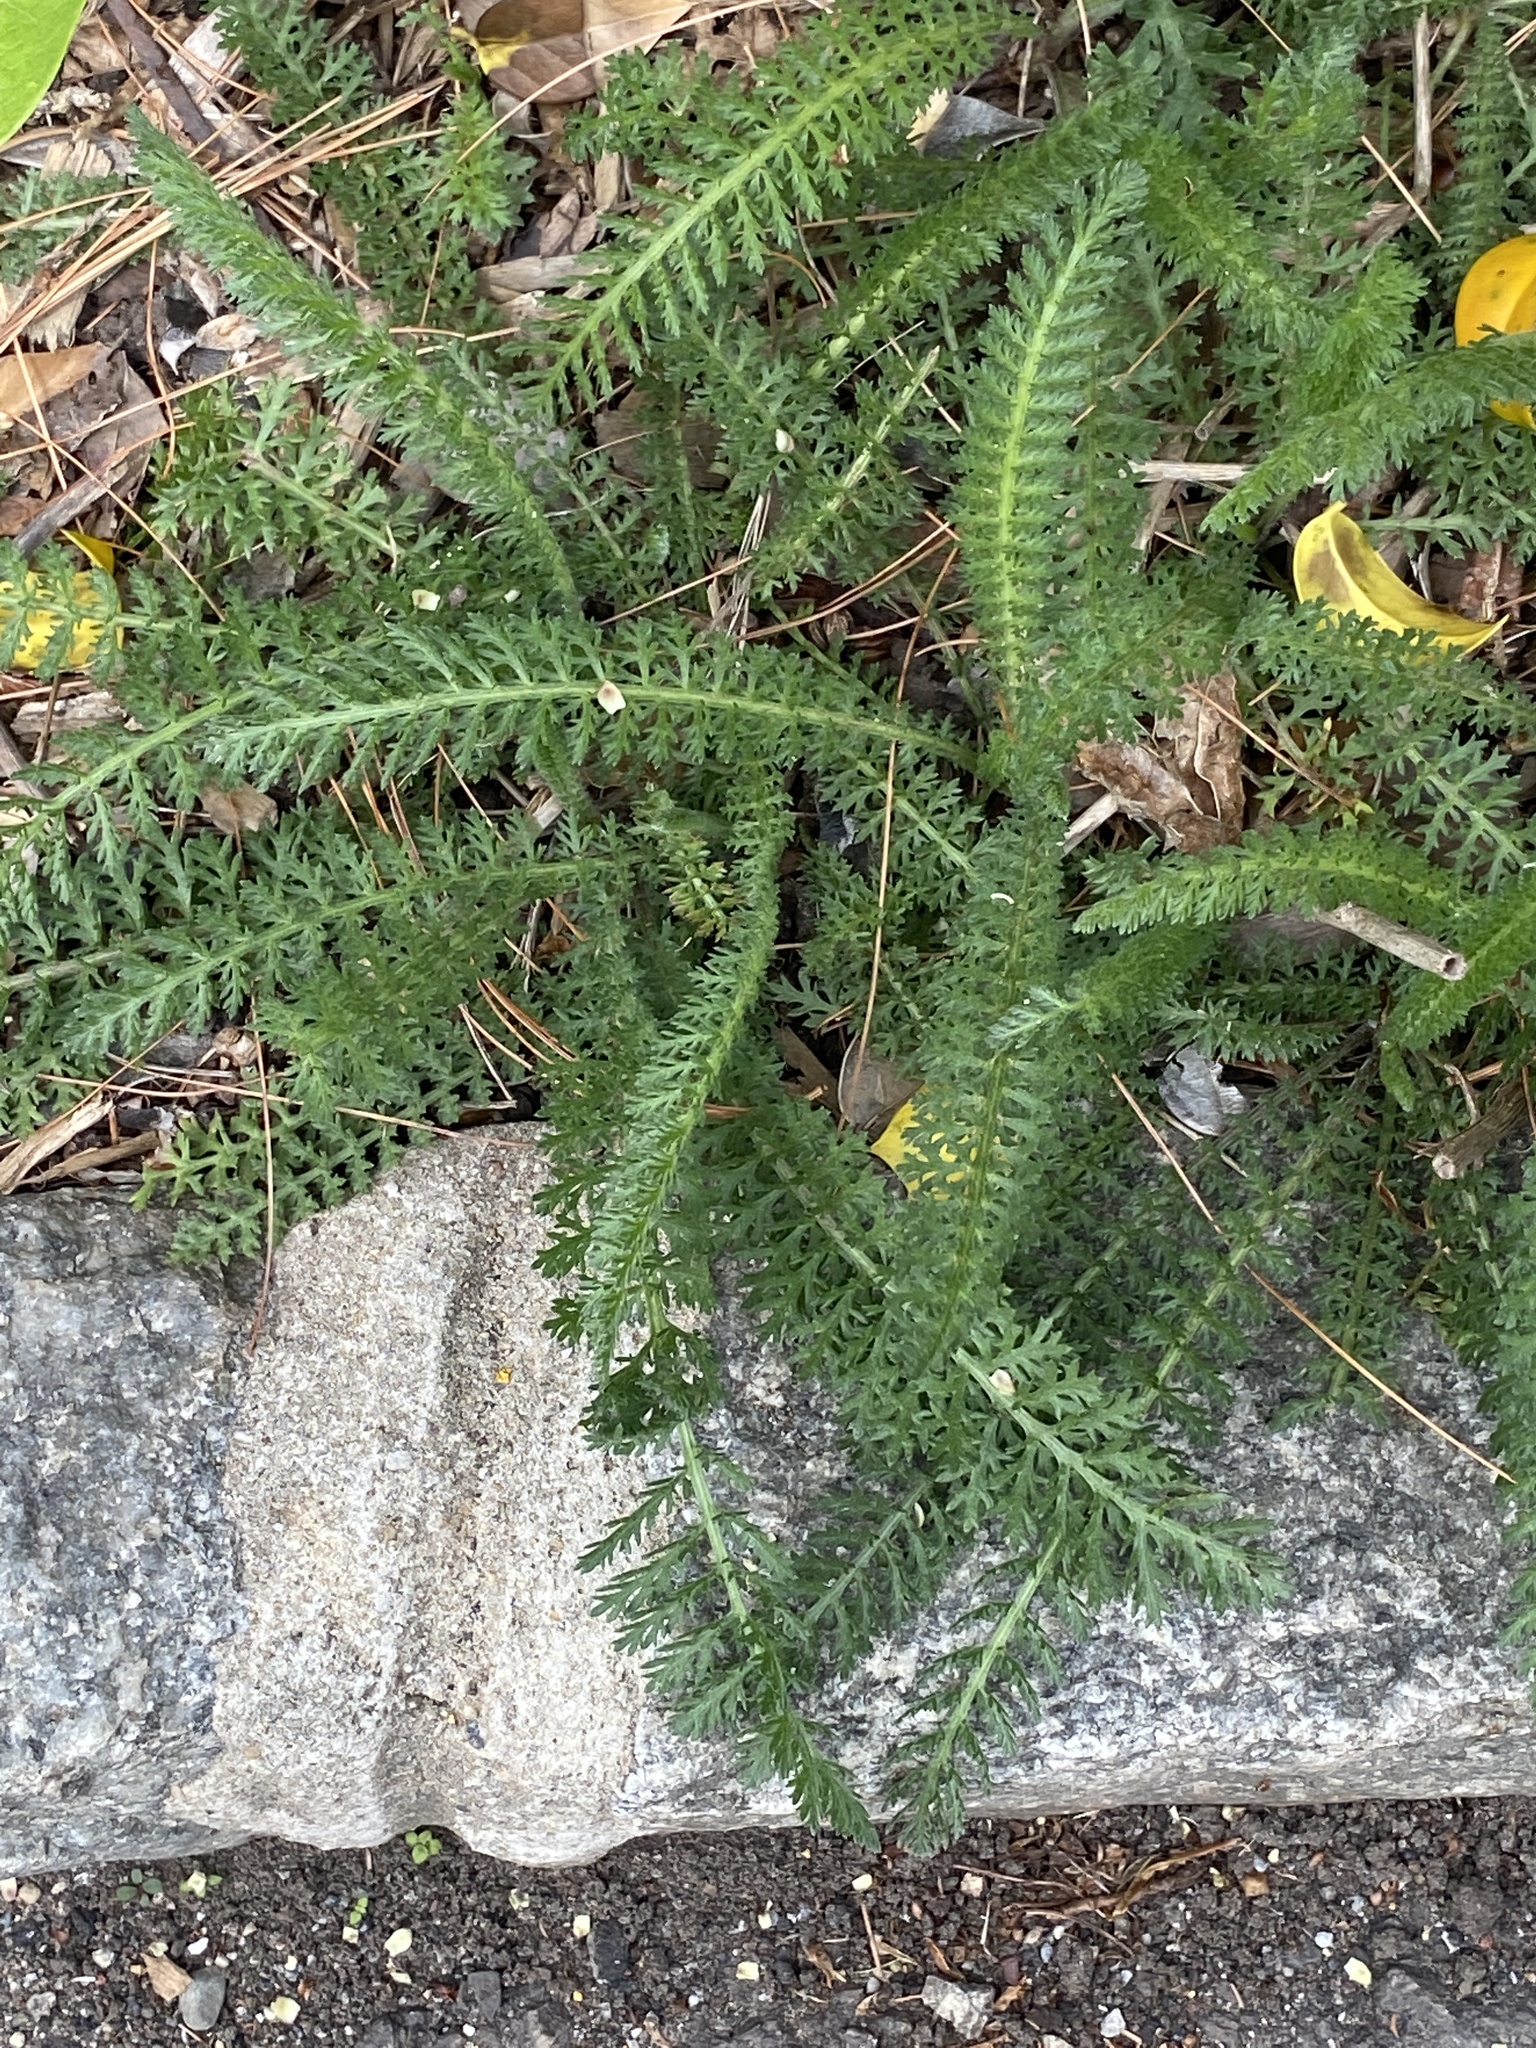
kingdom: Plantae
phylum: Tracheophyta
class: Magnoliopsida
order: Asterales
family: Asteraceae
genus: Achillea
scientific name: Achillea millefolium
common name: Yarrow
